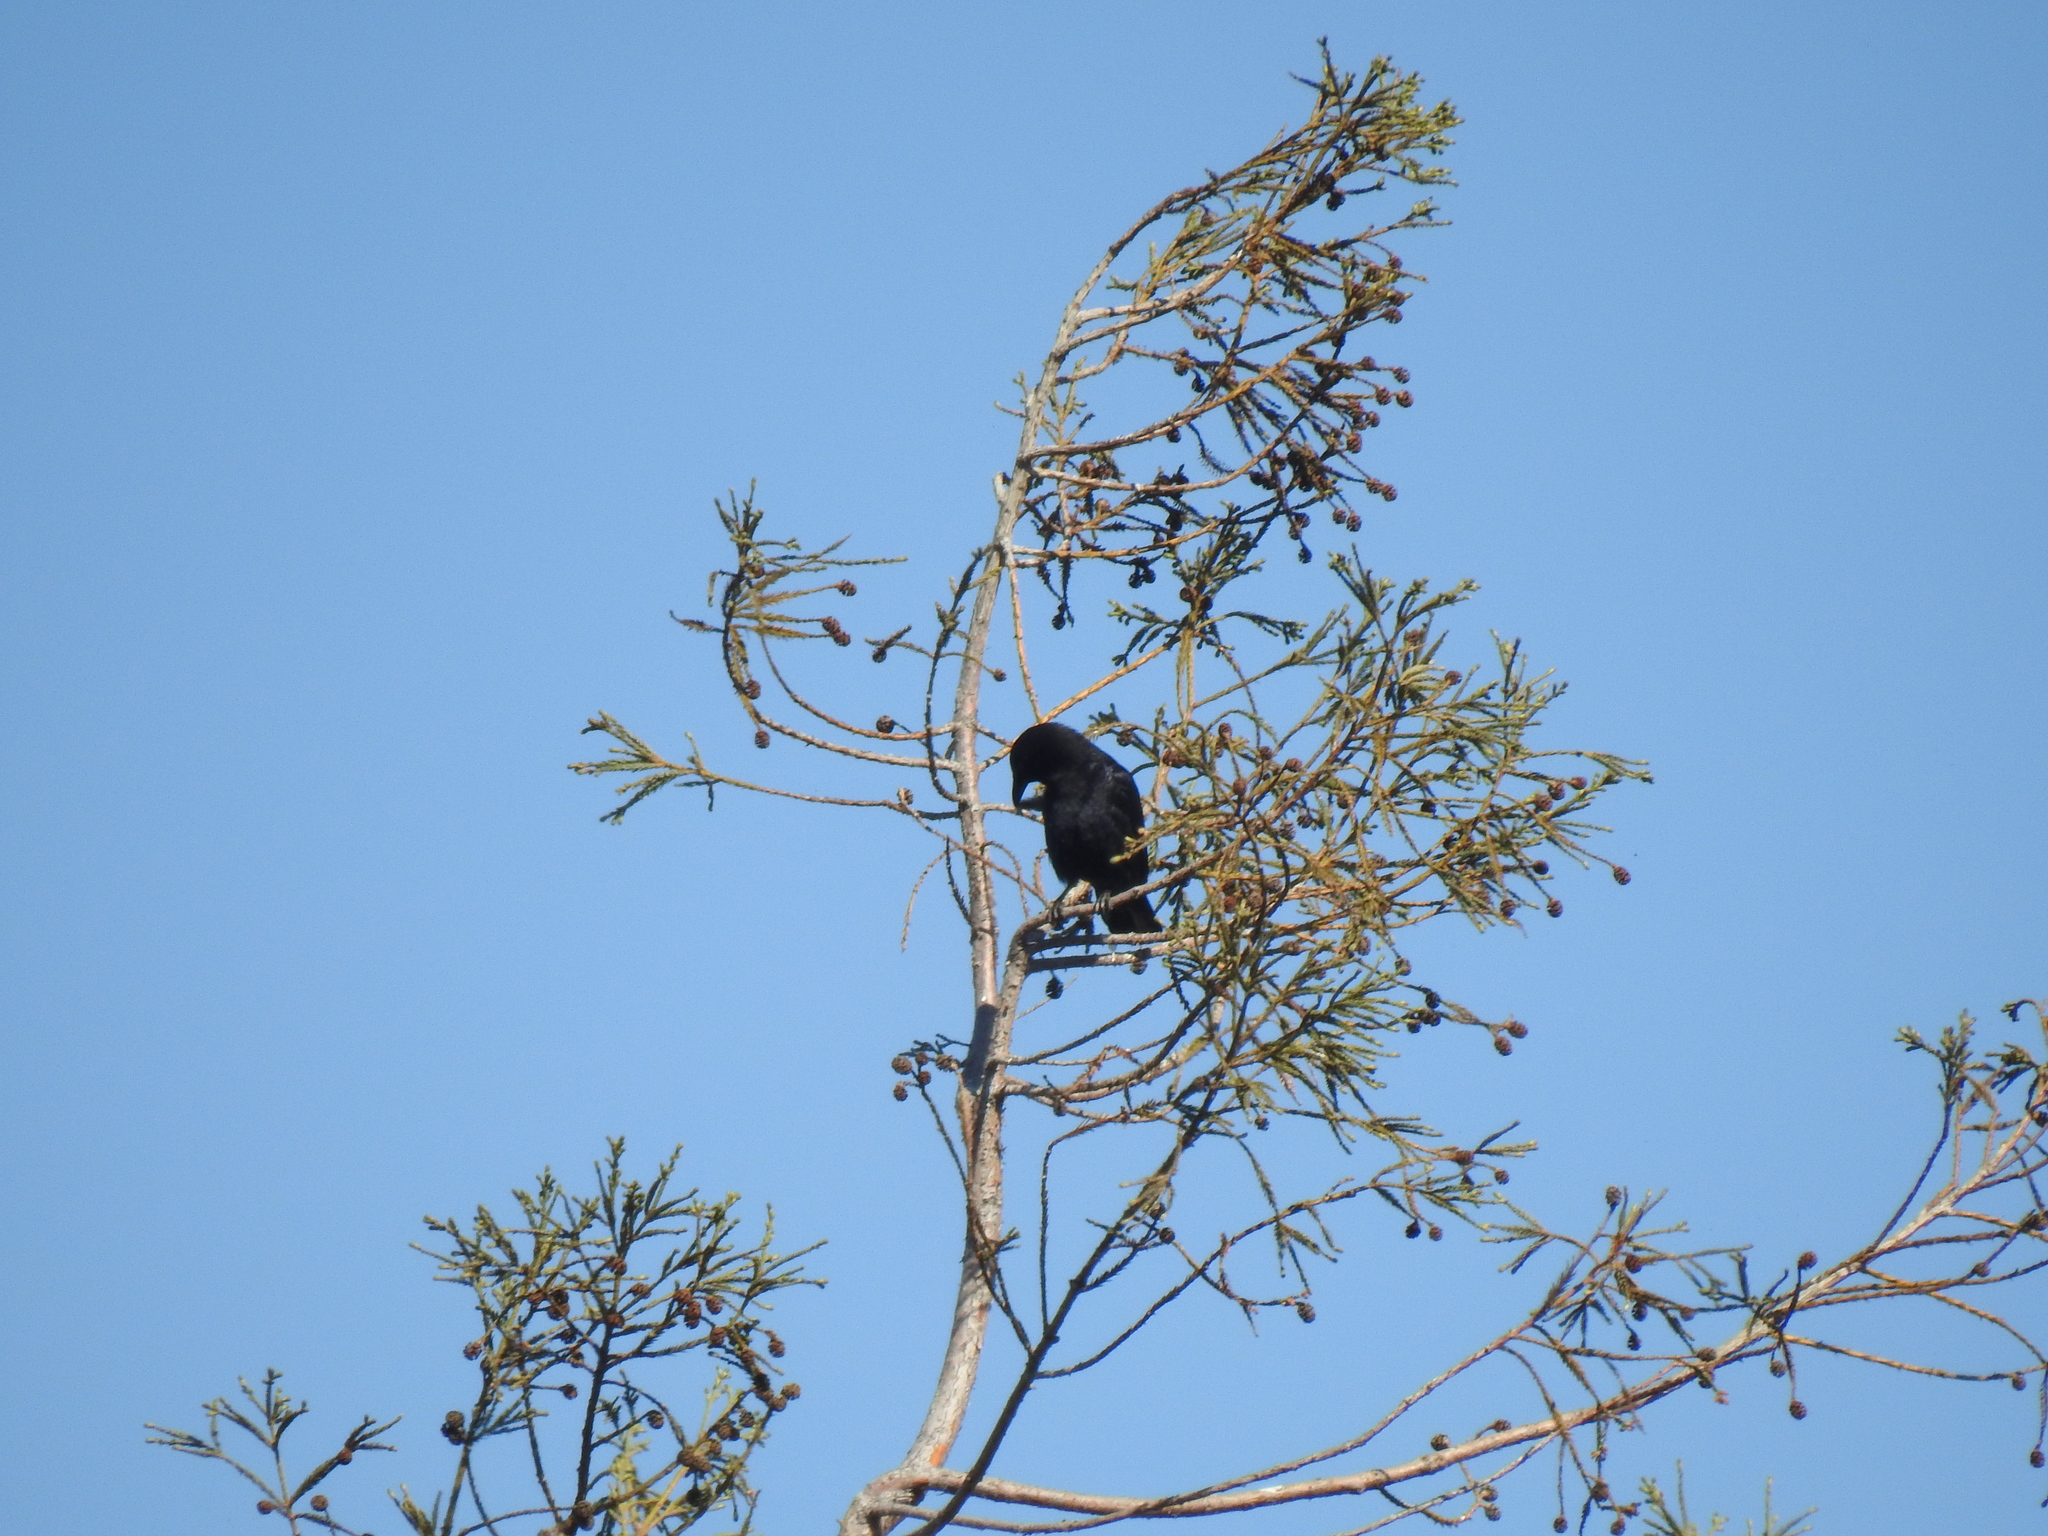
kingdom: Animalia
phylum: Chordata
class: Aves
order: Passeriformes
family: Corvidae
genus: Corvus
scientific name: Corvus brachyrhynchos
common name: American crow
